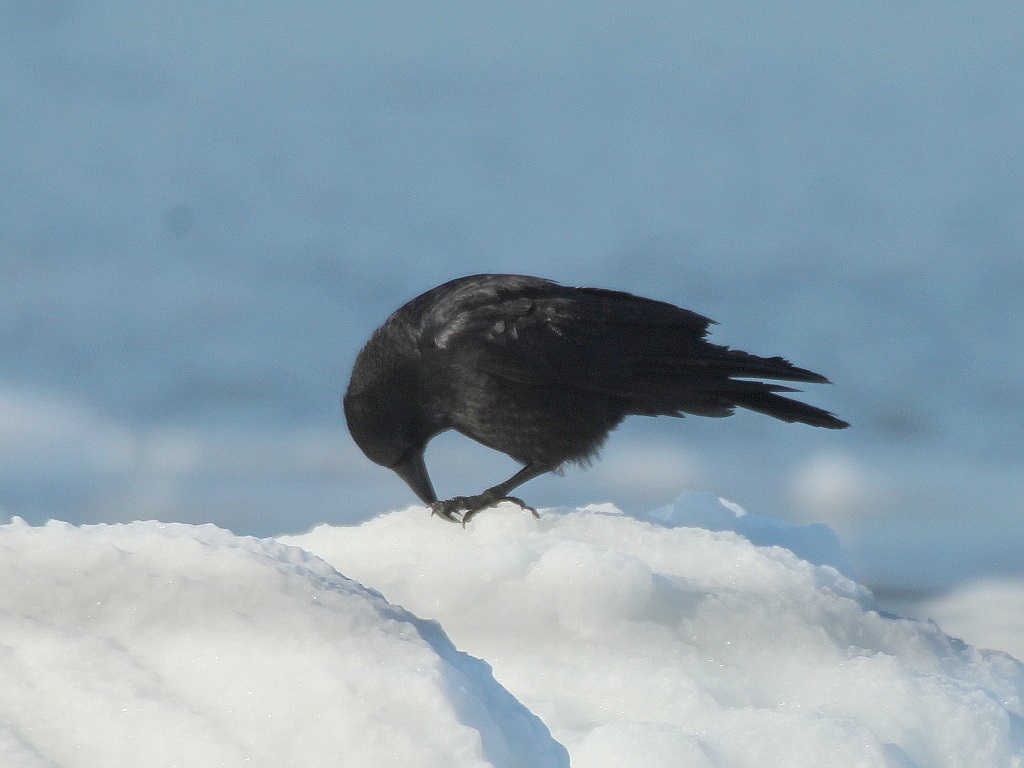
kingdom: Animalia
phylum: Chordata
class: Aves
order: Passeriformes
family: Corvidae
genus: Corvus
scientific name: Corvus corone
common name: Carrion crow
